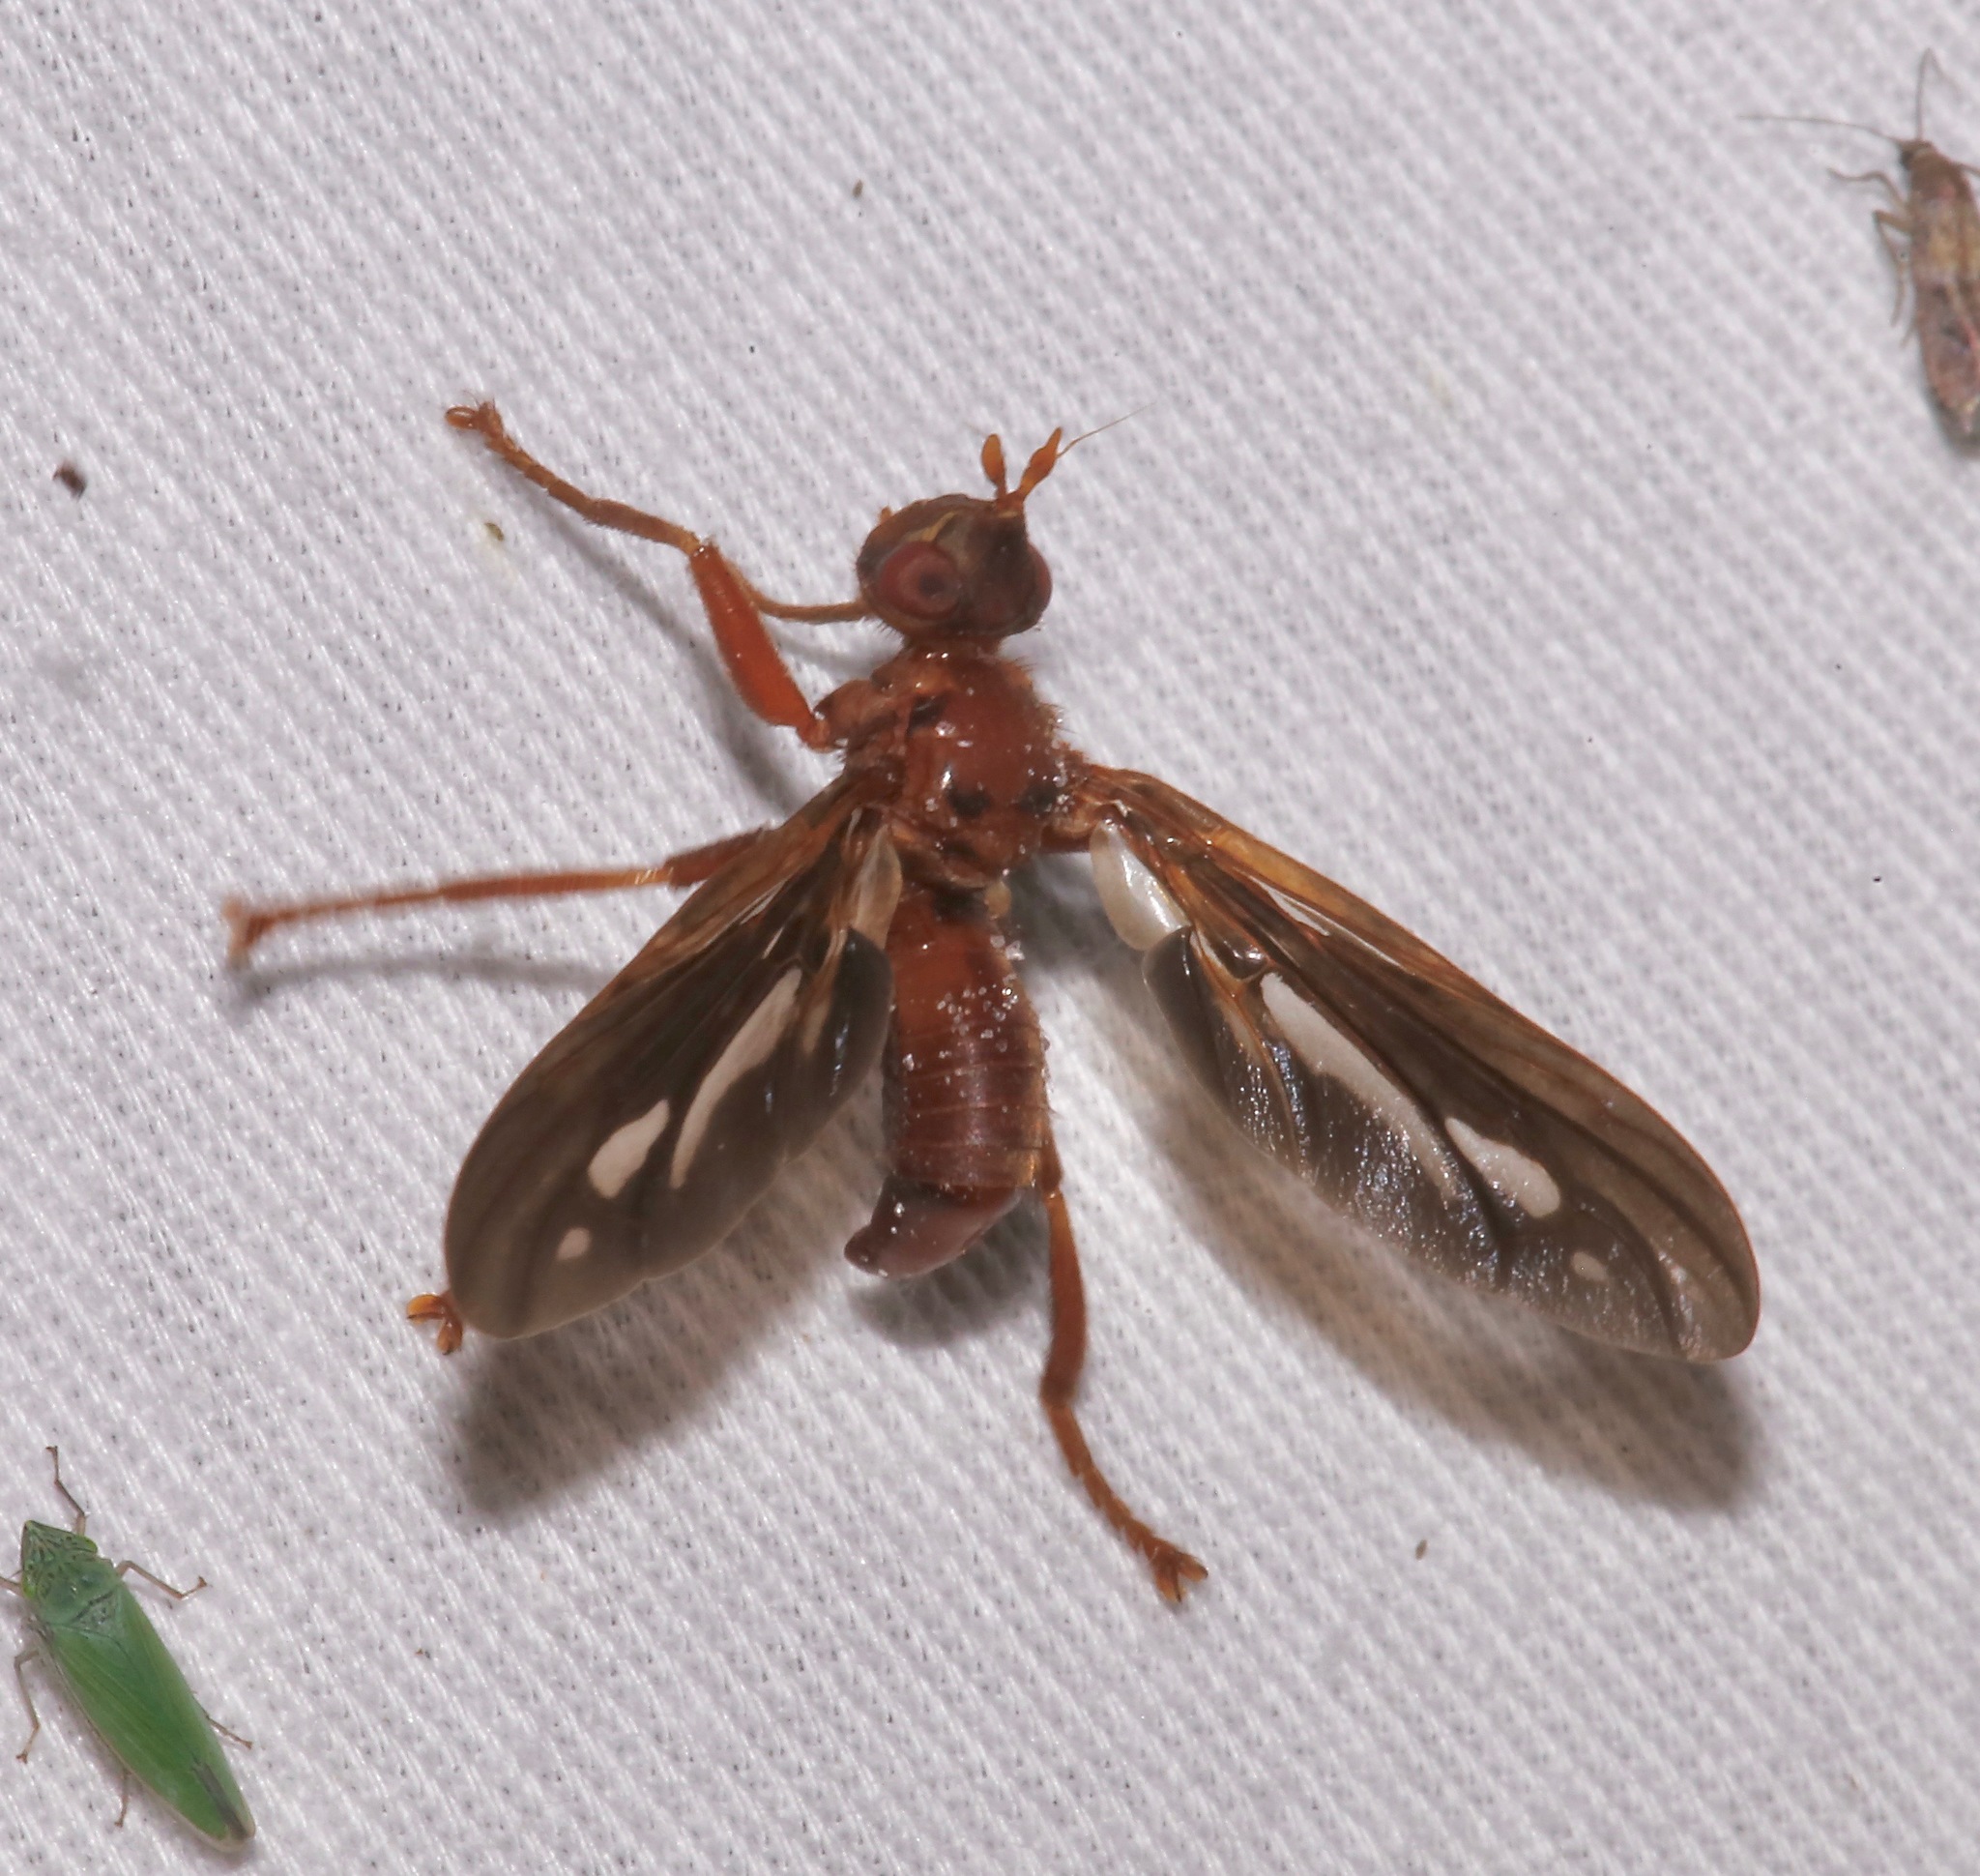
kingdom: Animalia
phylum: Arthropoda
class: Insecta
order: Diptera
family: Pyrgotidae
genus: Pyrgota
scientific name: Pyrgota fenestrata
